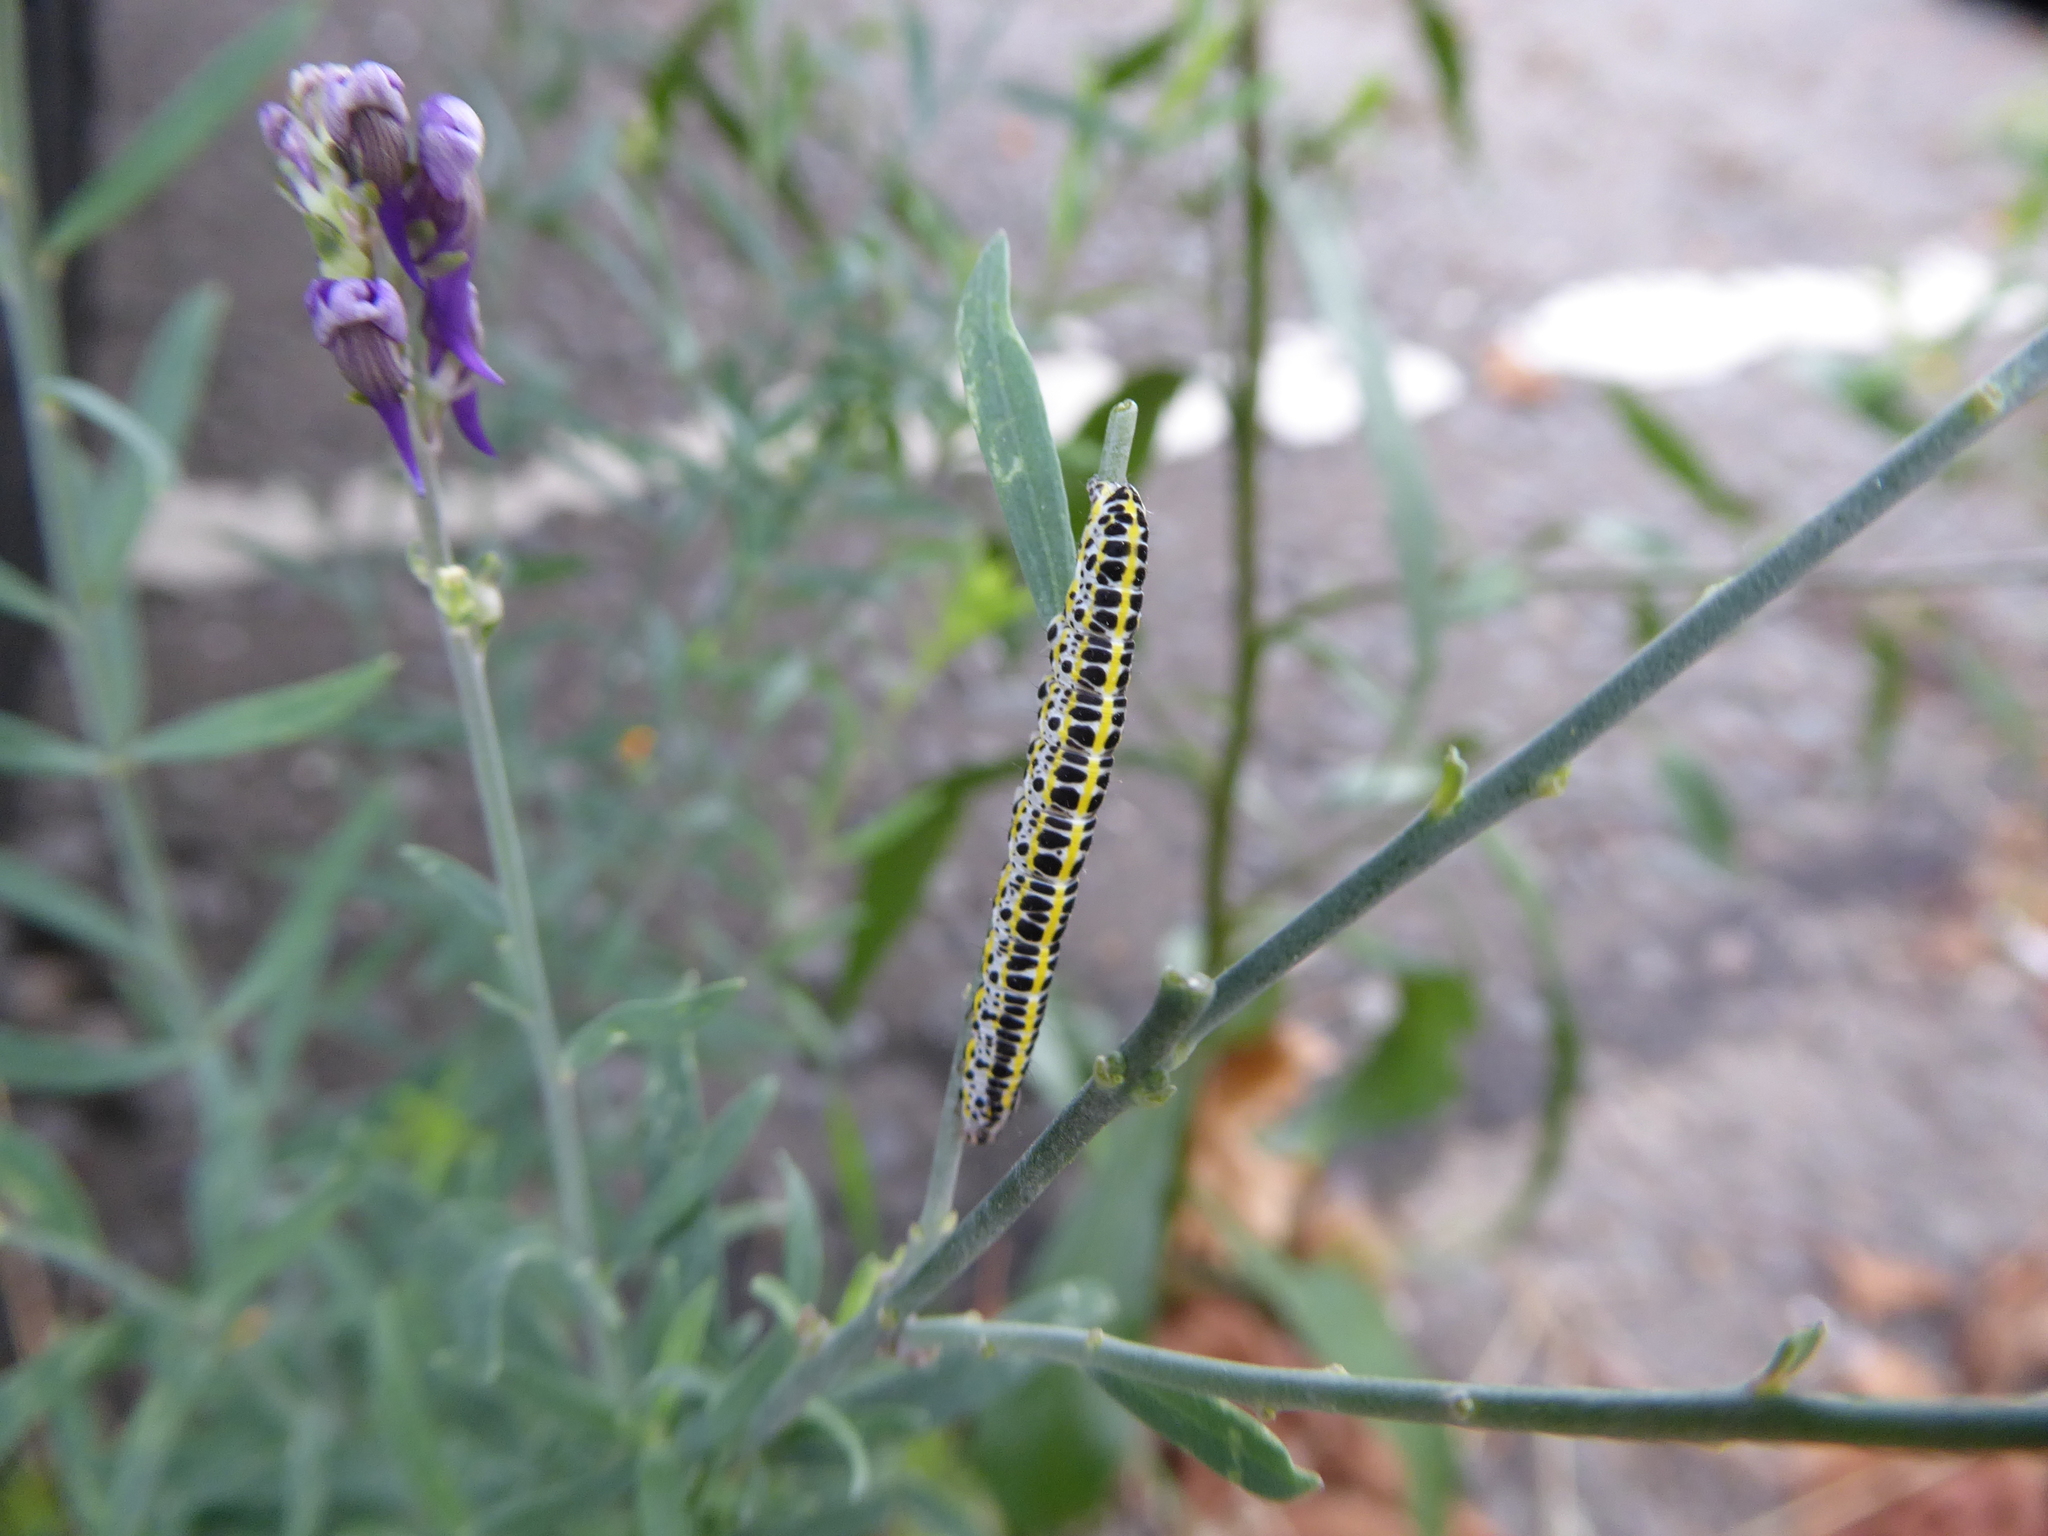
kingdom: Animalia
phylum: Arthropoda
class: Insecta
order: Lepidoptera
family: Noctuidae
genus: Calophasia
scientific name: Calophasia lunula
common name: Toadflax brocade
